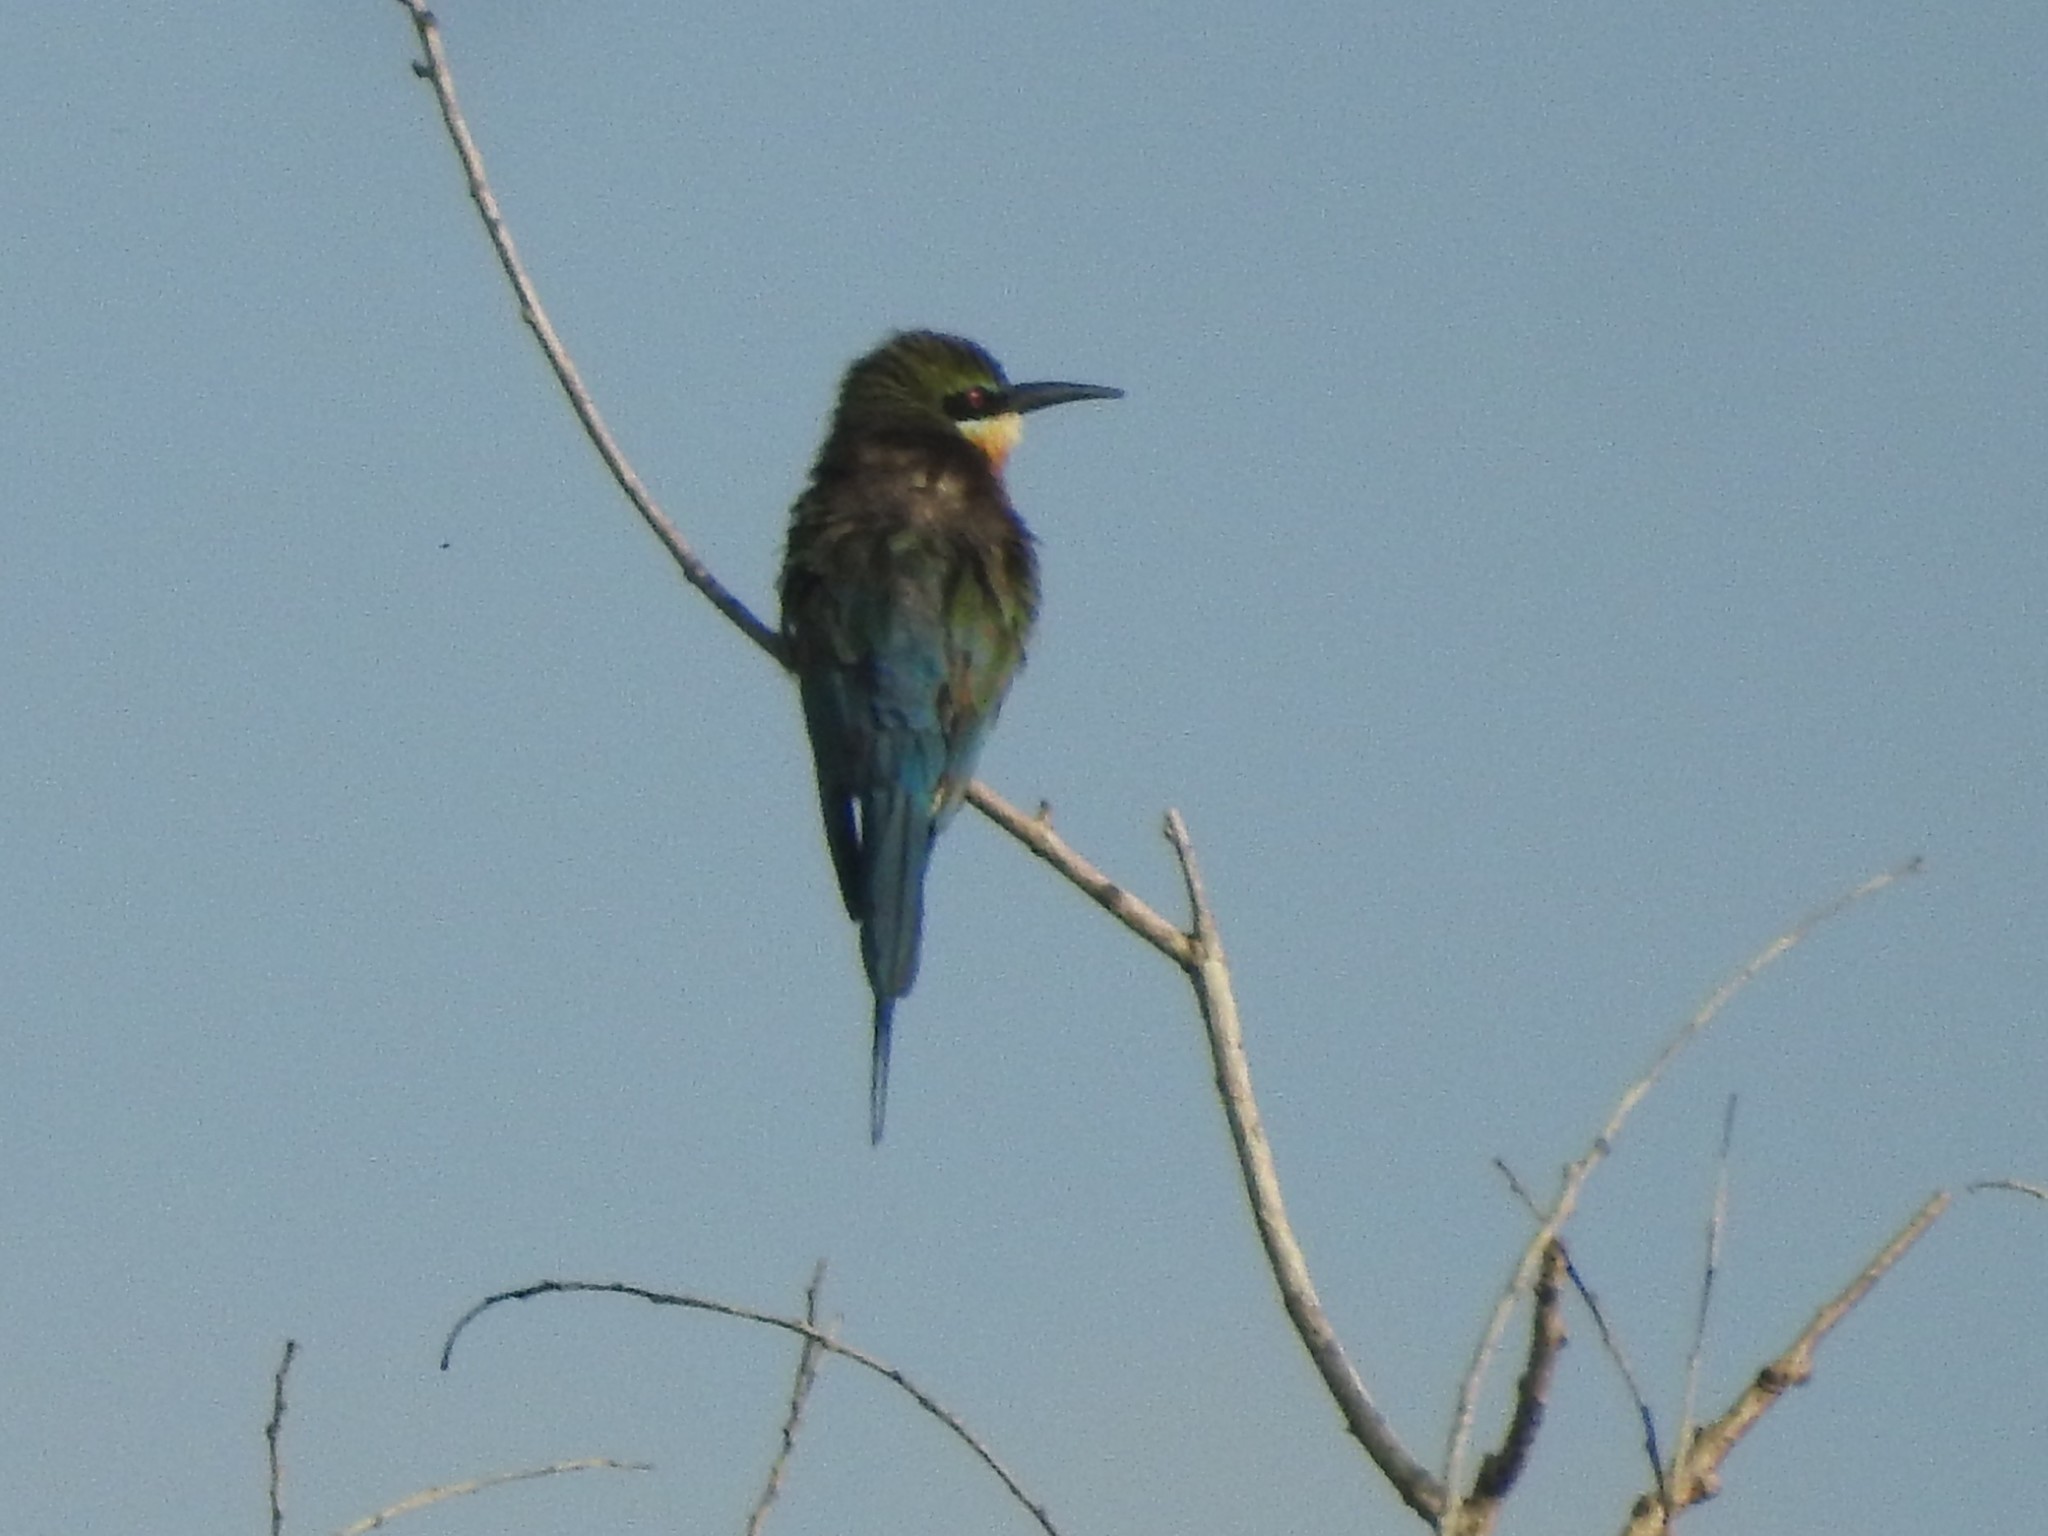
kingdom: Animalia
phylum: Chordata
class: Aves
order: Coraciiformes
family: Meropidae
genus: Merops
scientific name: Merops philippinus
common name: Blue-tailed bee-eater
